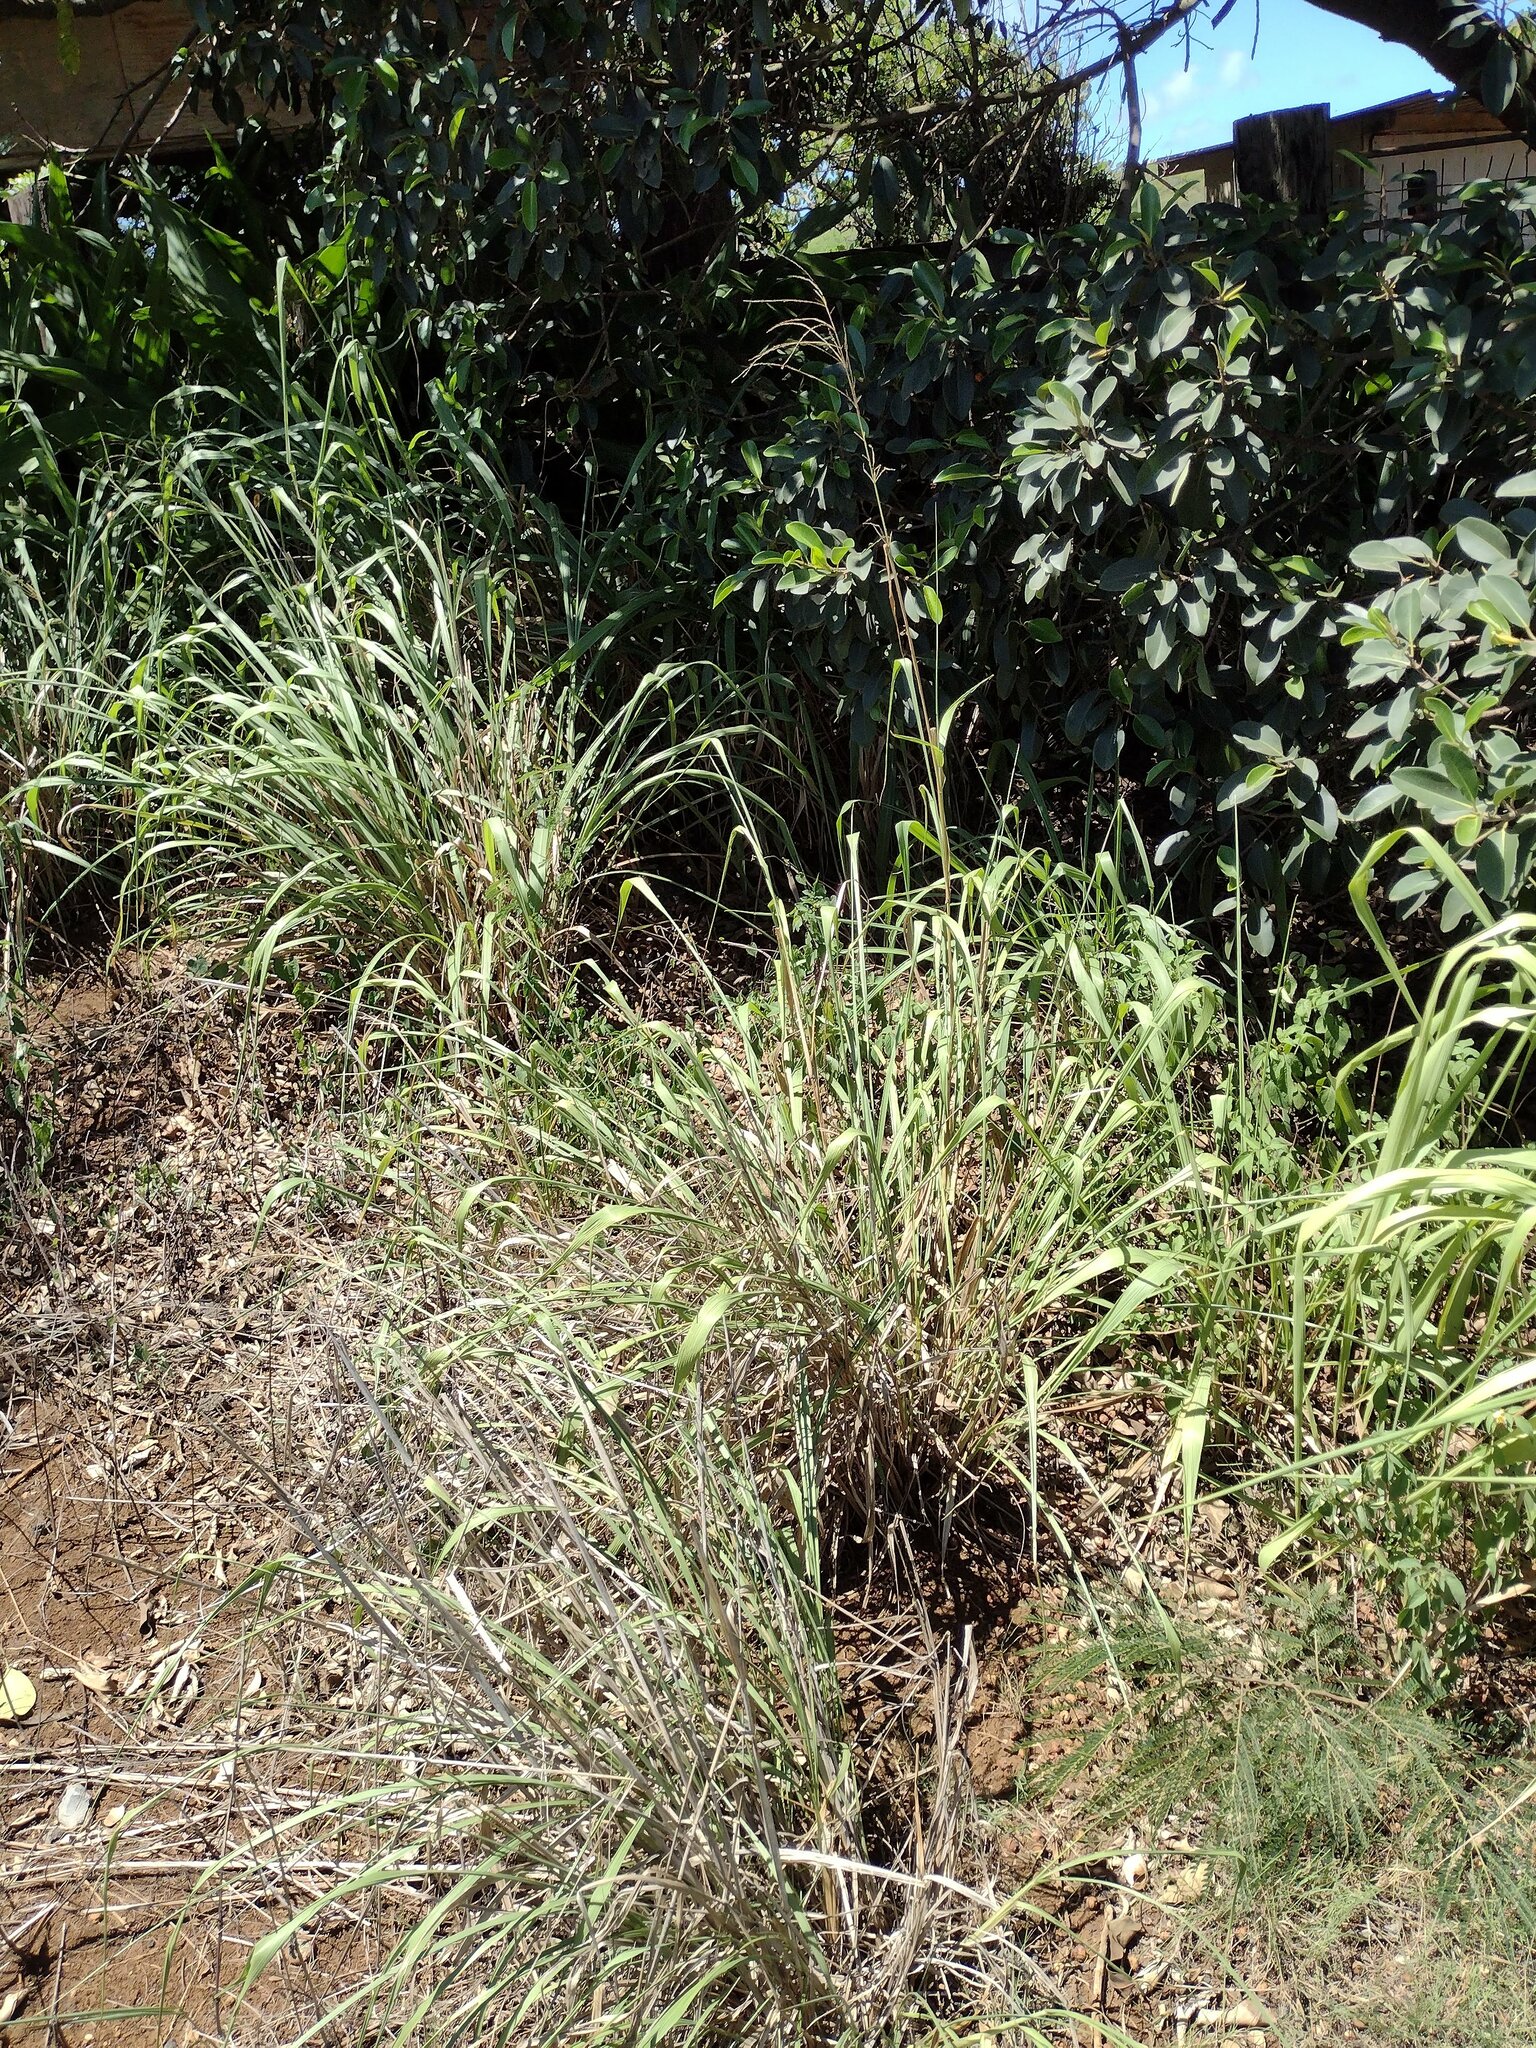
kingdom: Plantae
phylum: Tracheophyta
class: Liliopsida
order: Poales
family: Poaceae
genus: Megathyrsus
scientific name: Megathyrsus maximus
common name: Guineagrass
